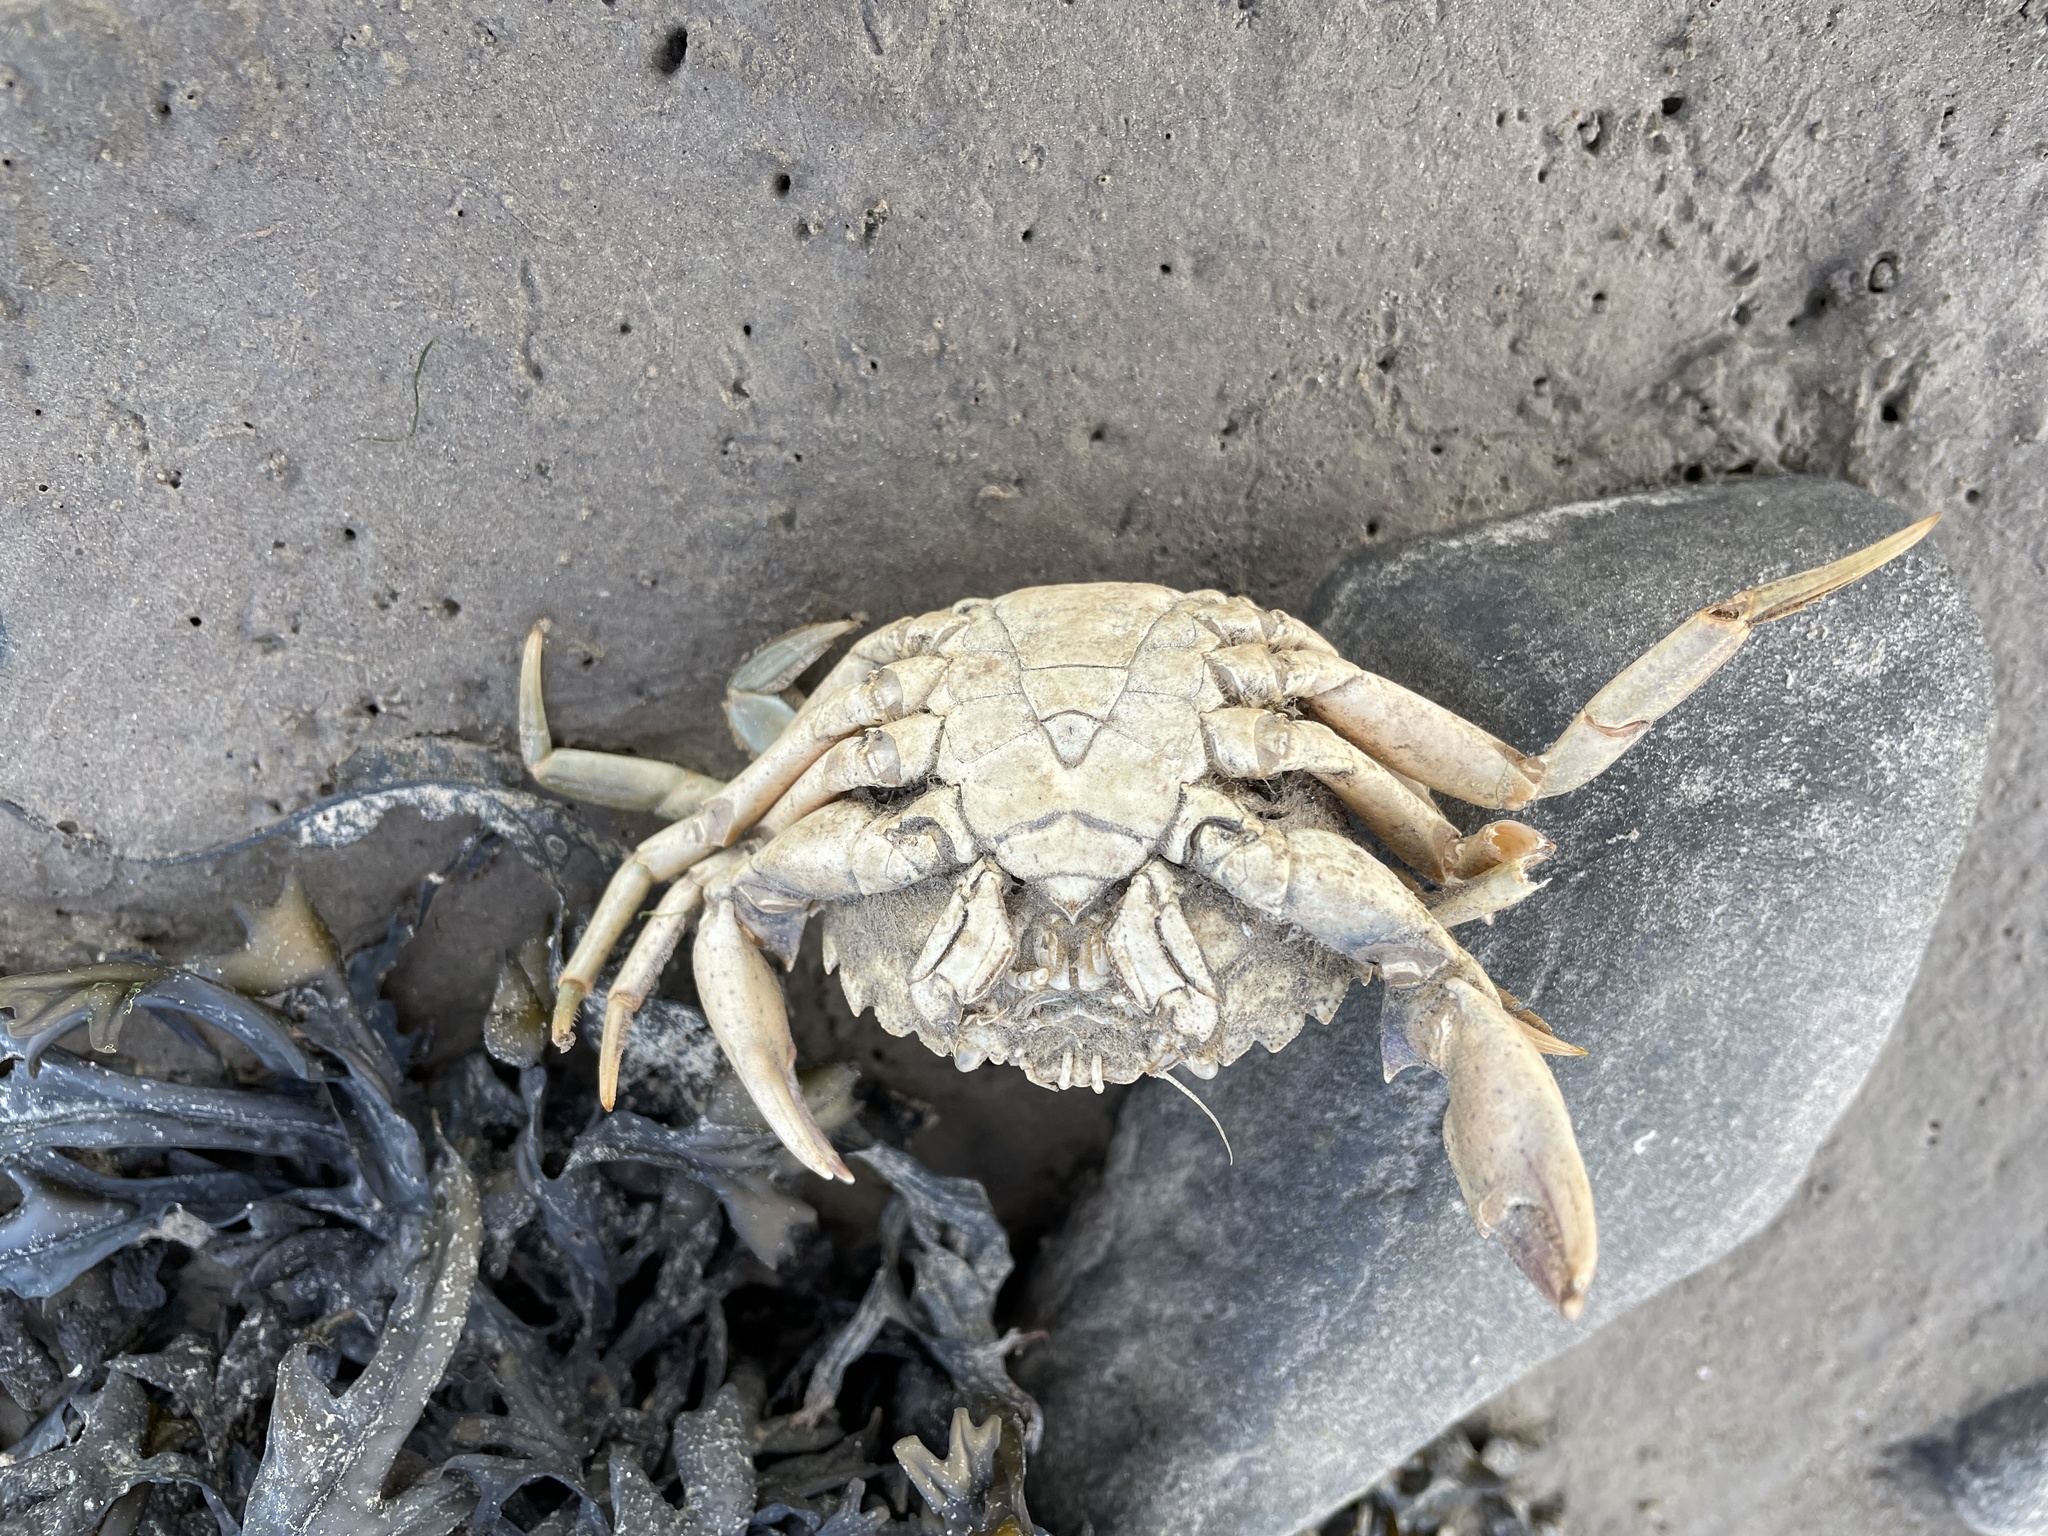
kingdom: Animalia
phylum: Arthropoda
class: Malacostraca
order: Decapoda
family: Carcinidae
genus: Carcinus
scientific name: Carcinus maenas
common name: European green crab
